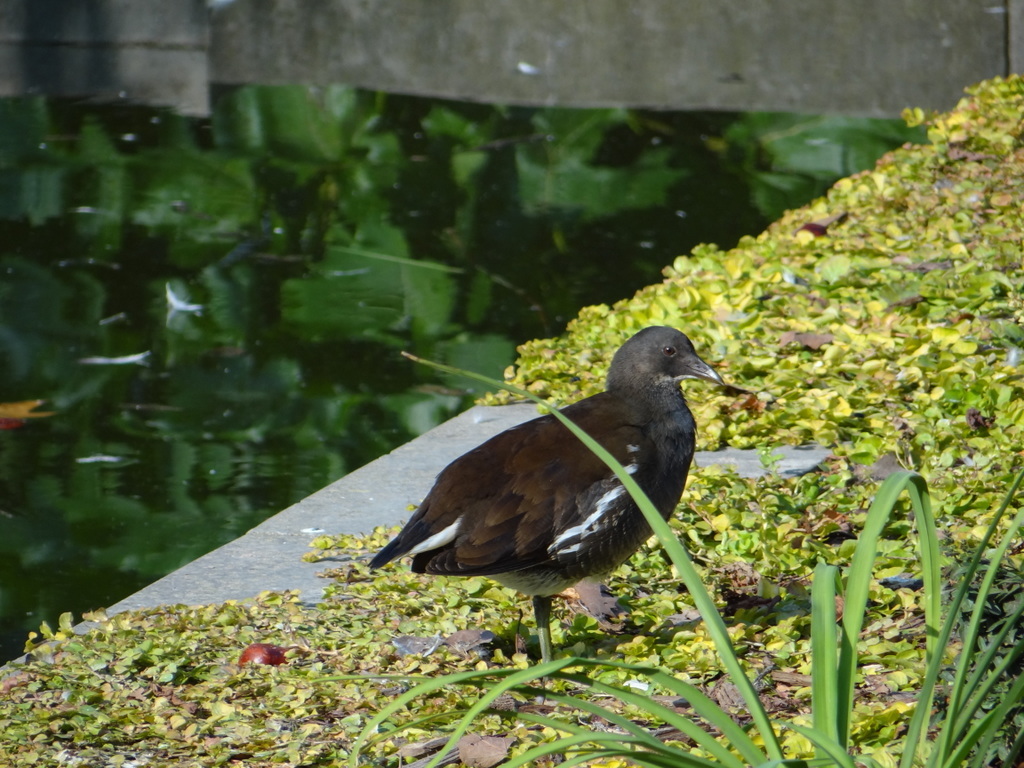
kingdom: Animalia
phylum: Chordata
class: Aves
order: Gruiformes
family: Rallidae
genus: Gallinula
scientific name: Gallinula chloropus
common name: Common moorhen
